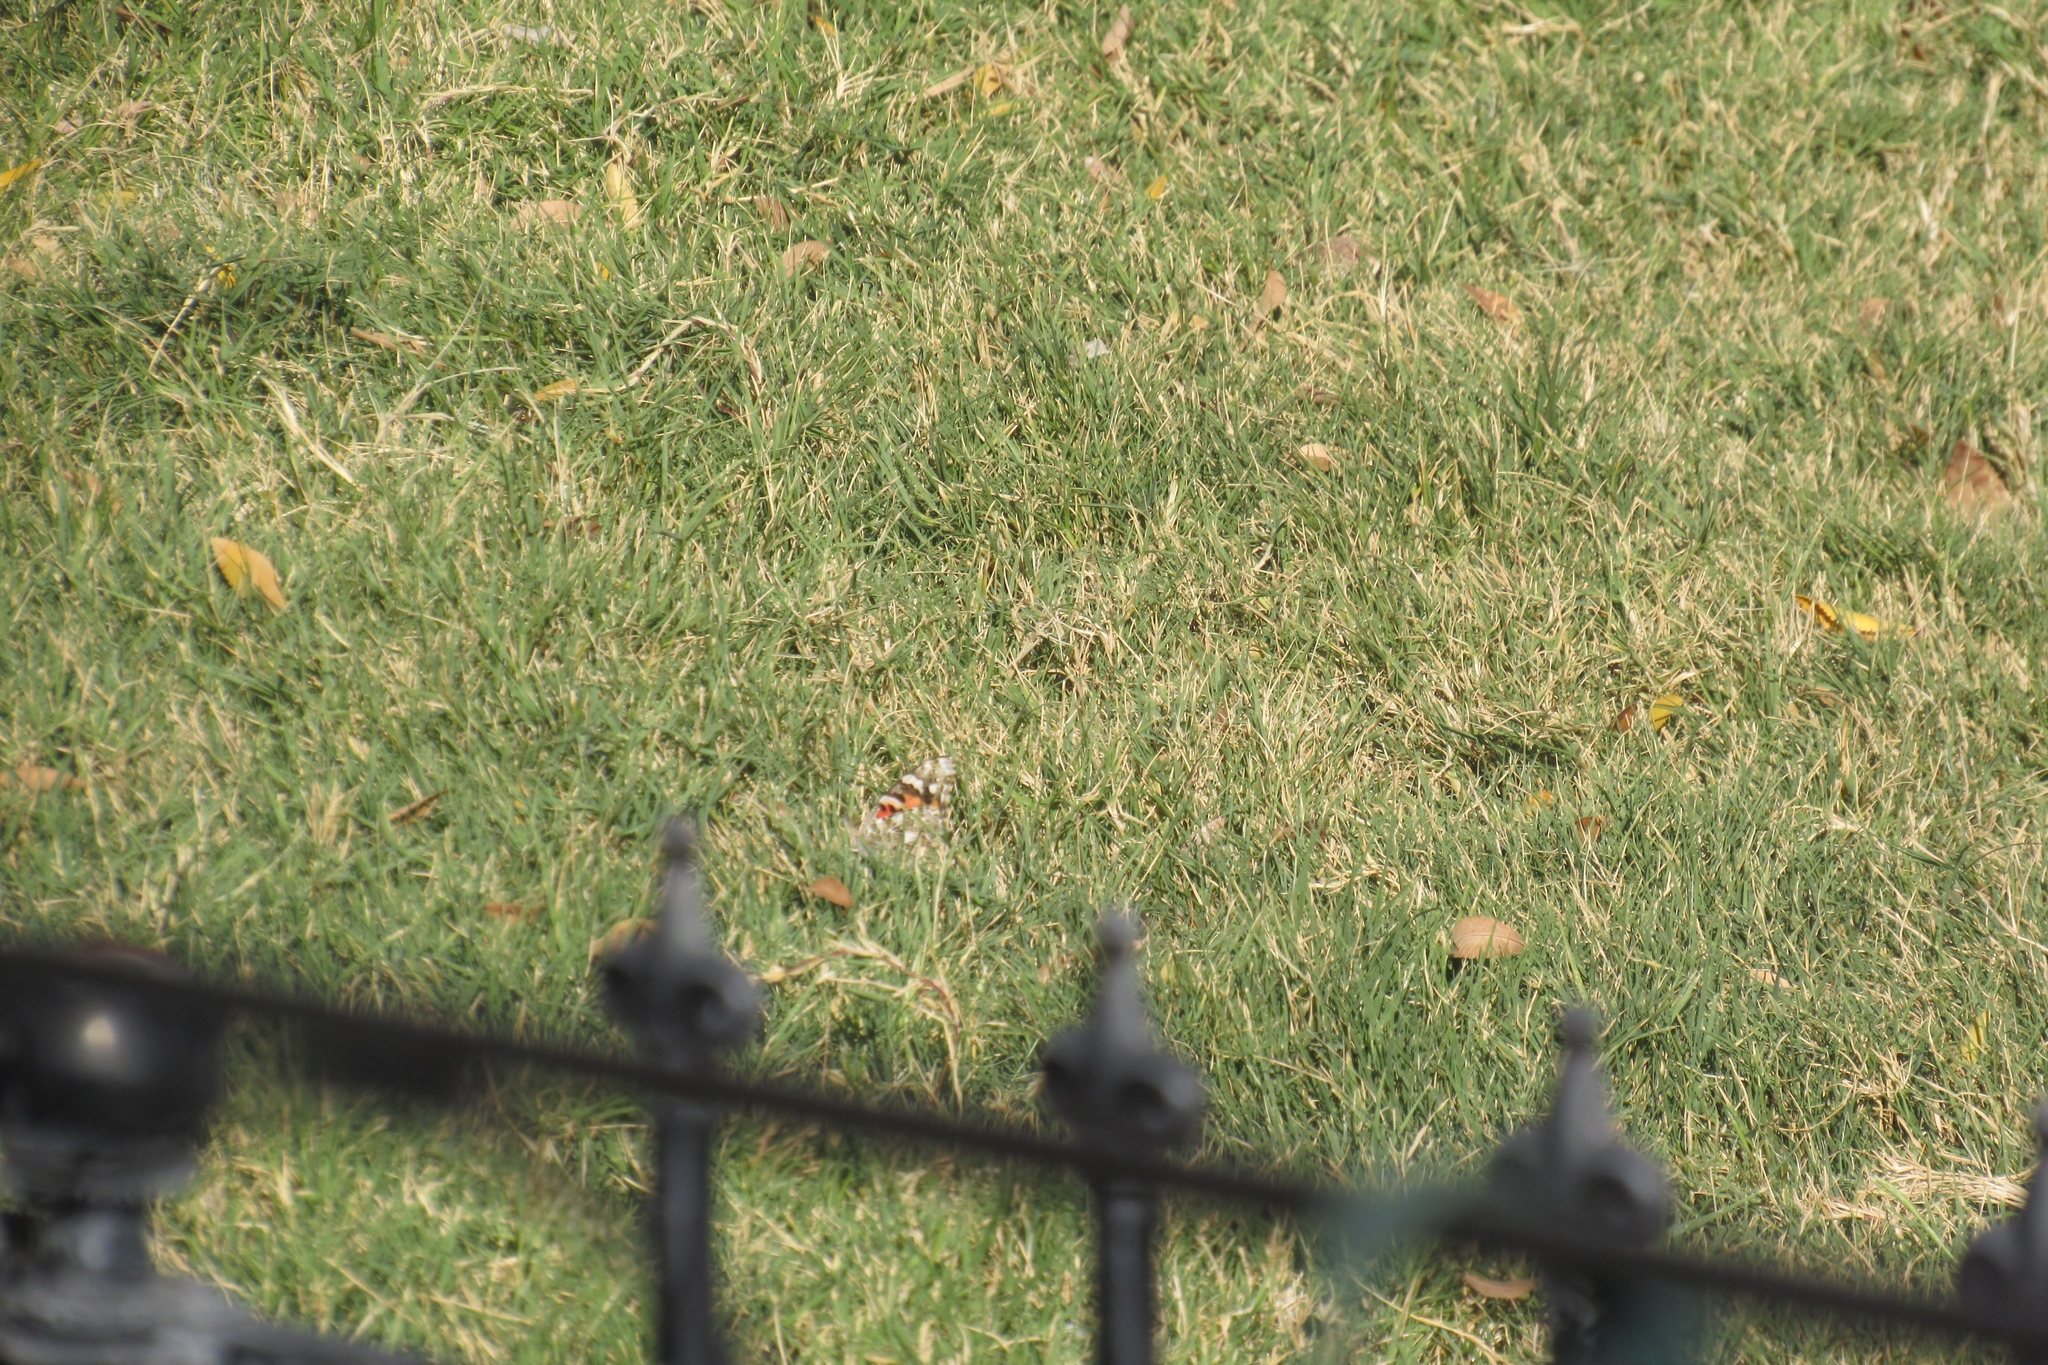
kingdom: Animalia
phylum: Arthropoda
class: Insecta
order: Lepidoptera
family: Nymphalidae
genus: Vanessa
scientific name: Vanessa cardui
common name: Painted lady
